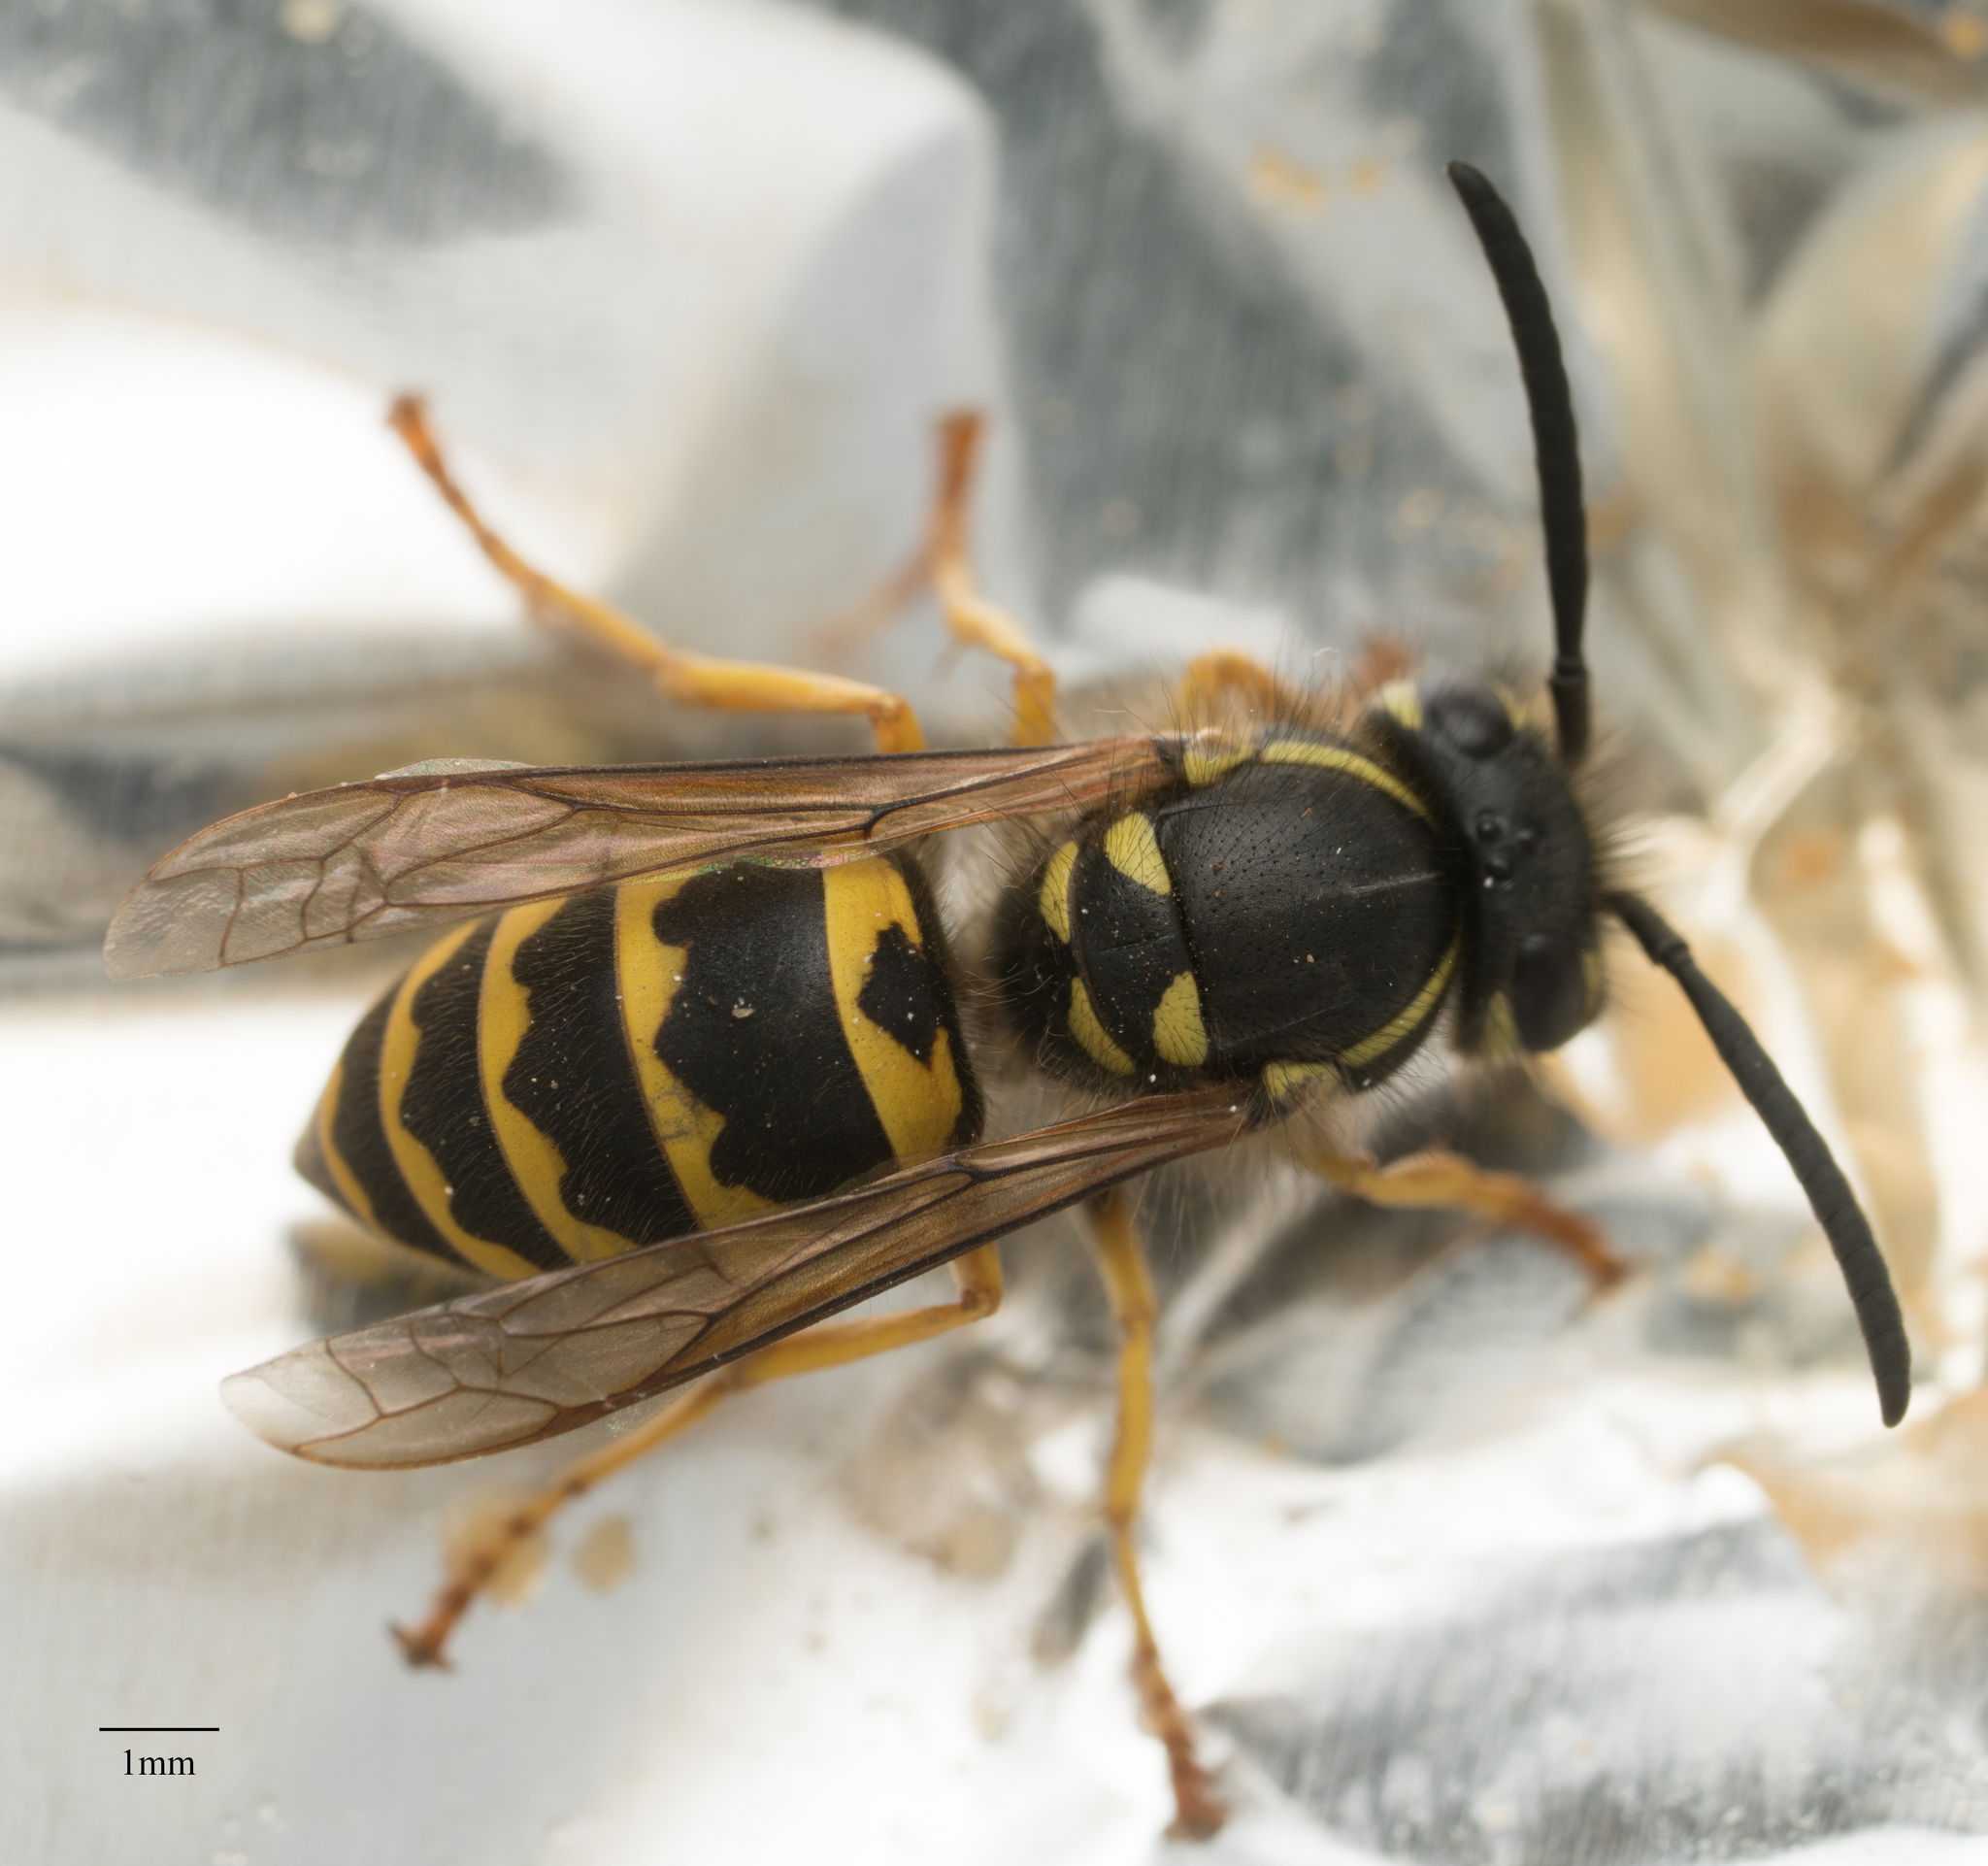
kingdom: Animalia
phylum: Arthropoda
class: Insecta
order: Hymenoptera
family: Vespidae
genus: Vespula
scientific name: Vespula alascensis
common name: Alaska yellowjacket
